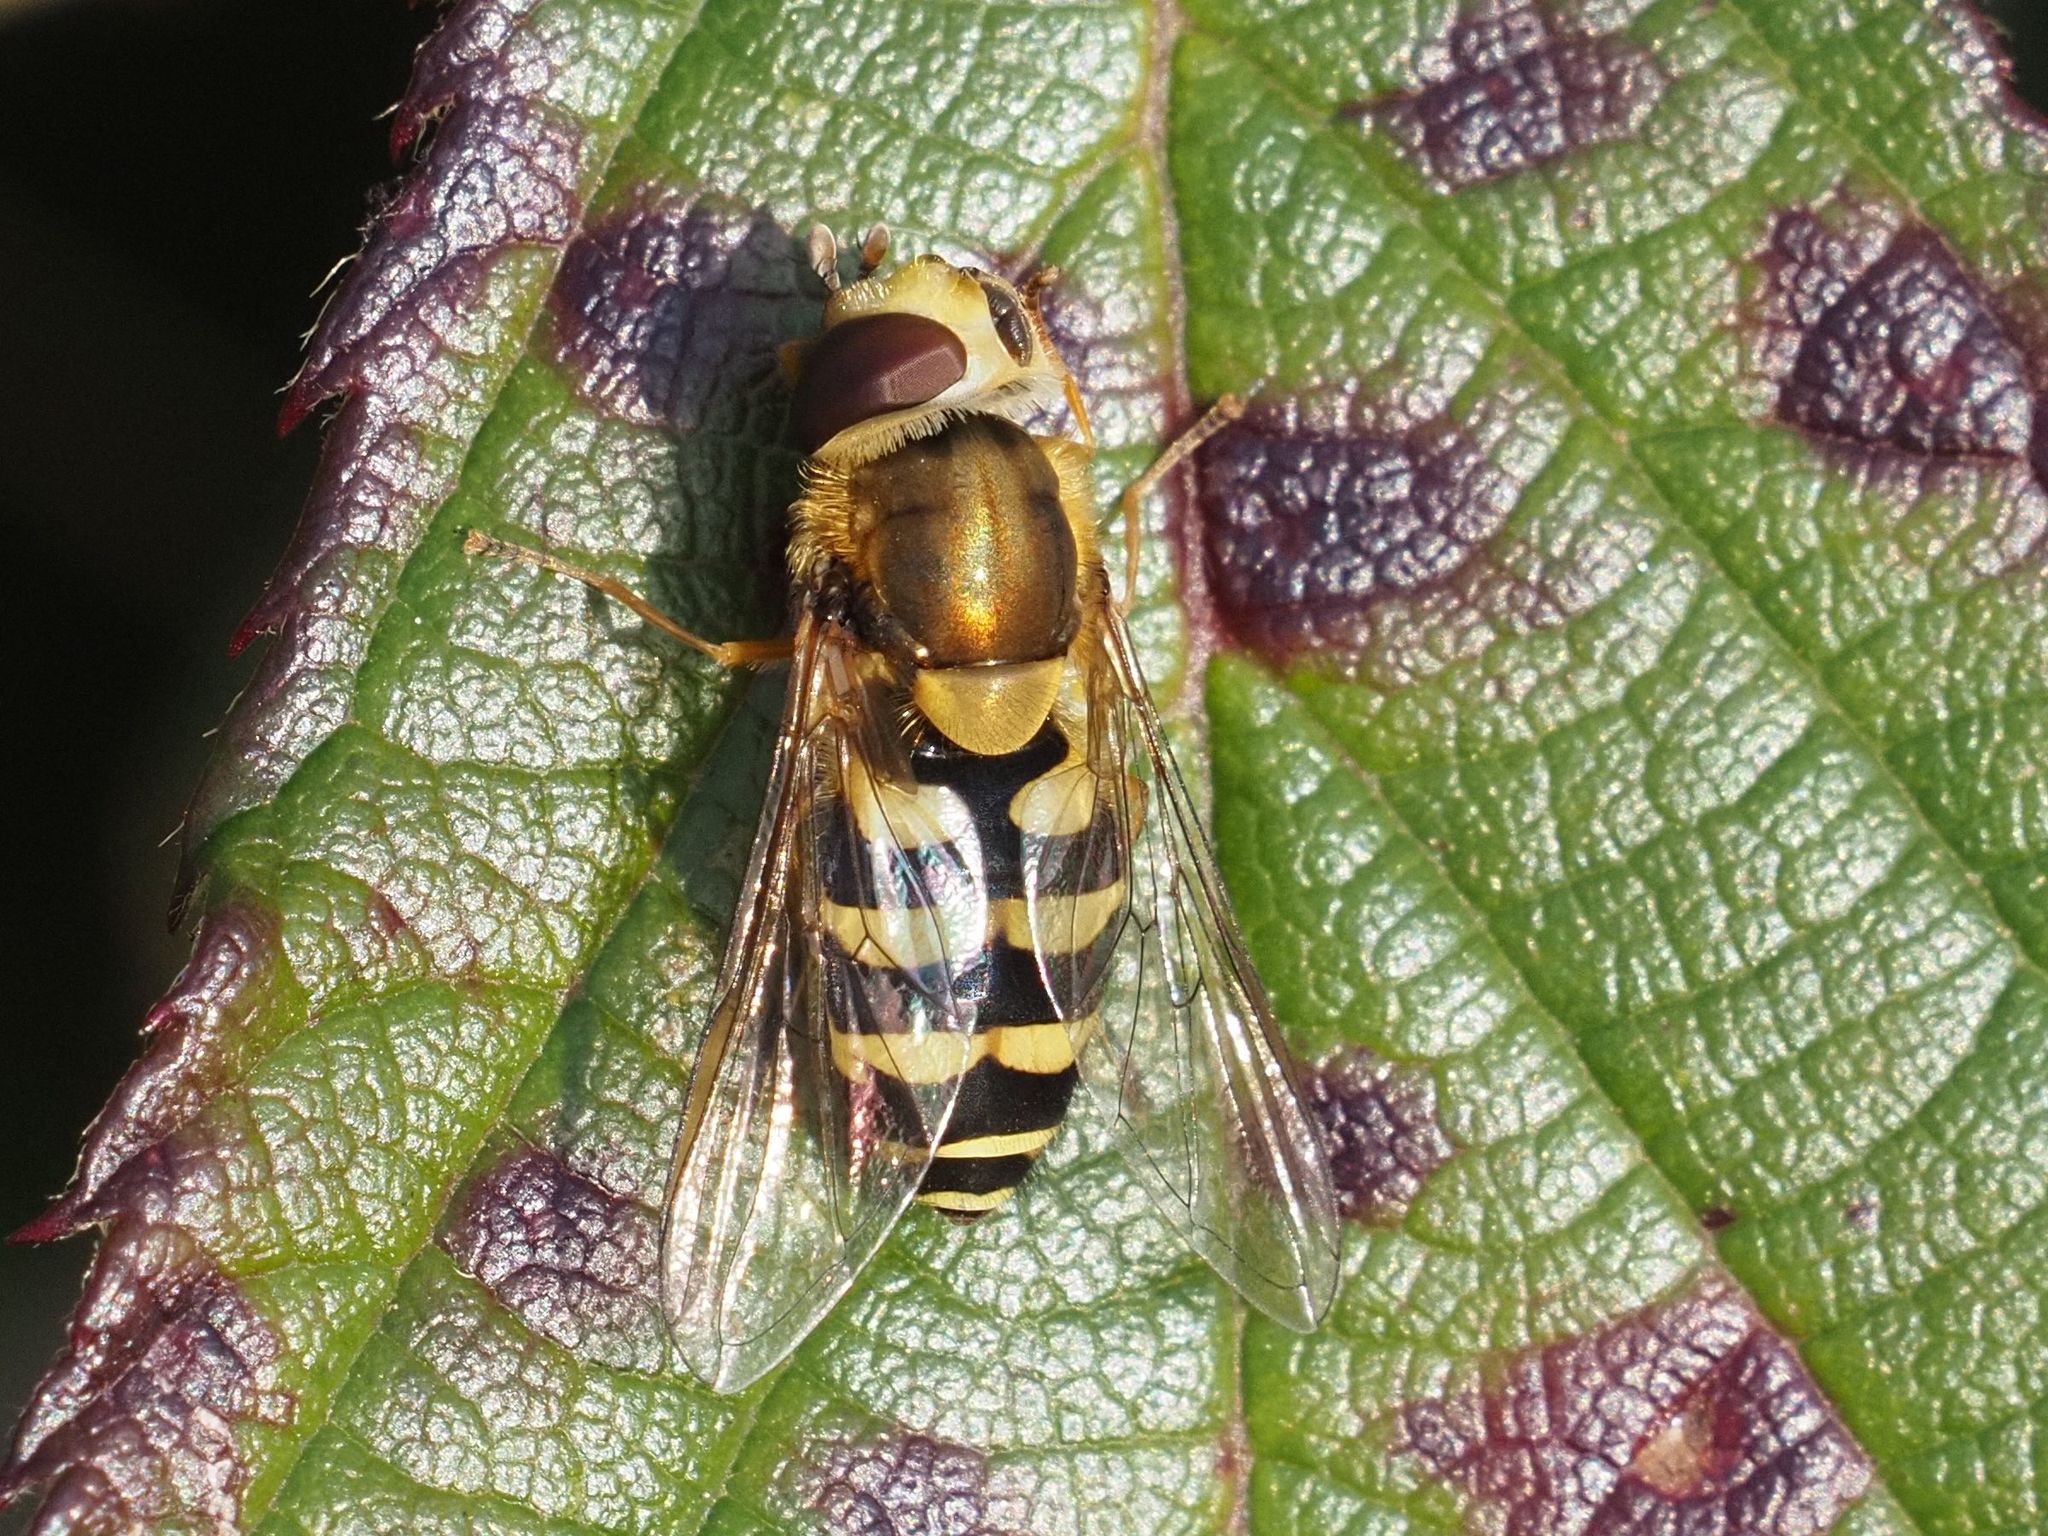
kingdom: Animalia
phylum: Arthropoda
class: Insecta
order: Diptera
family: Syrphidae
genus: Syrphus
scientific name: Syrphus
